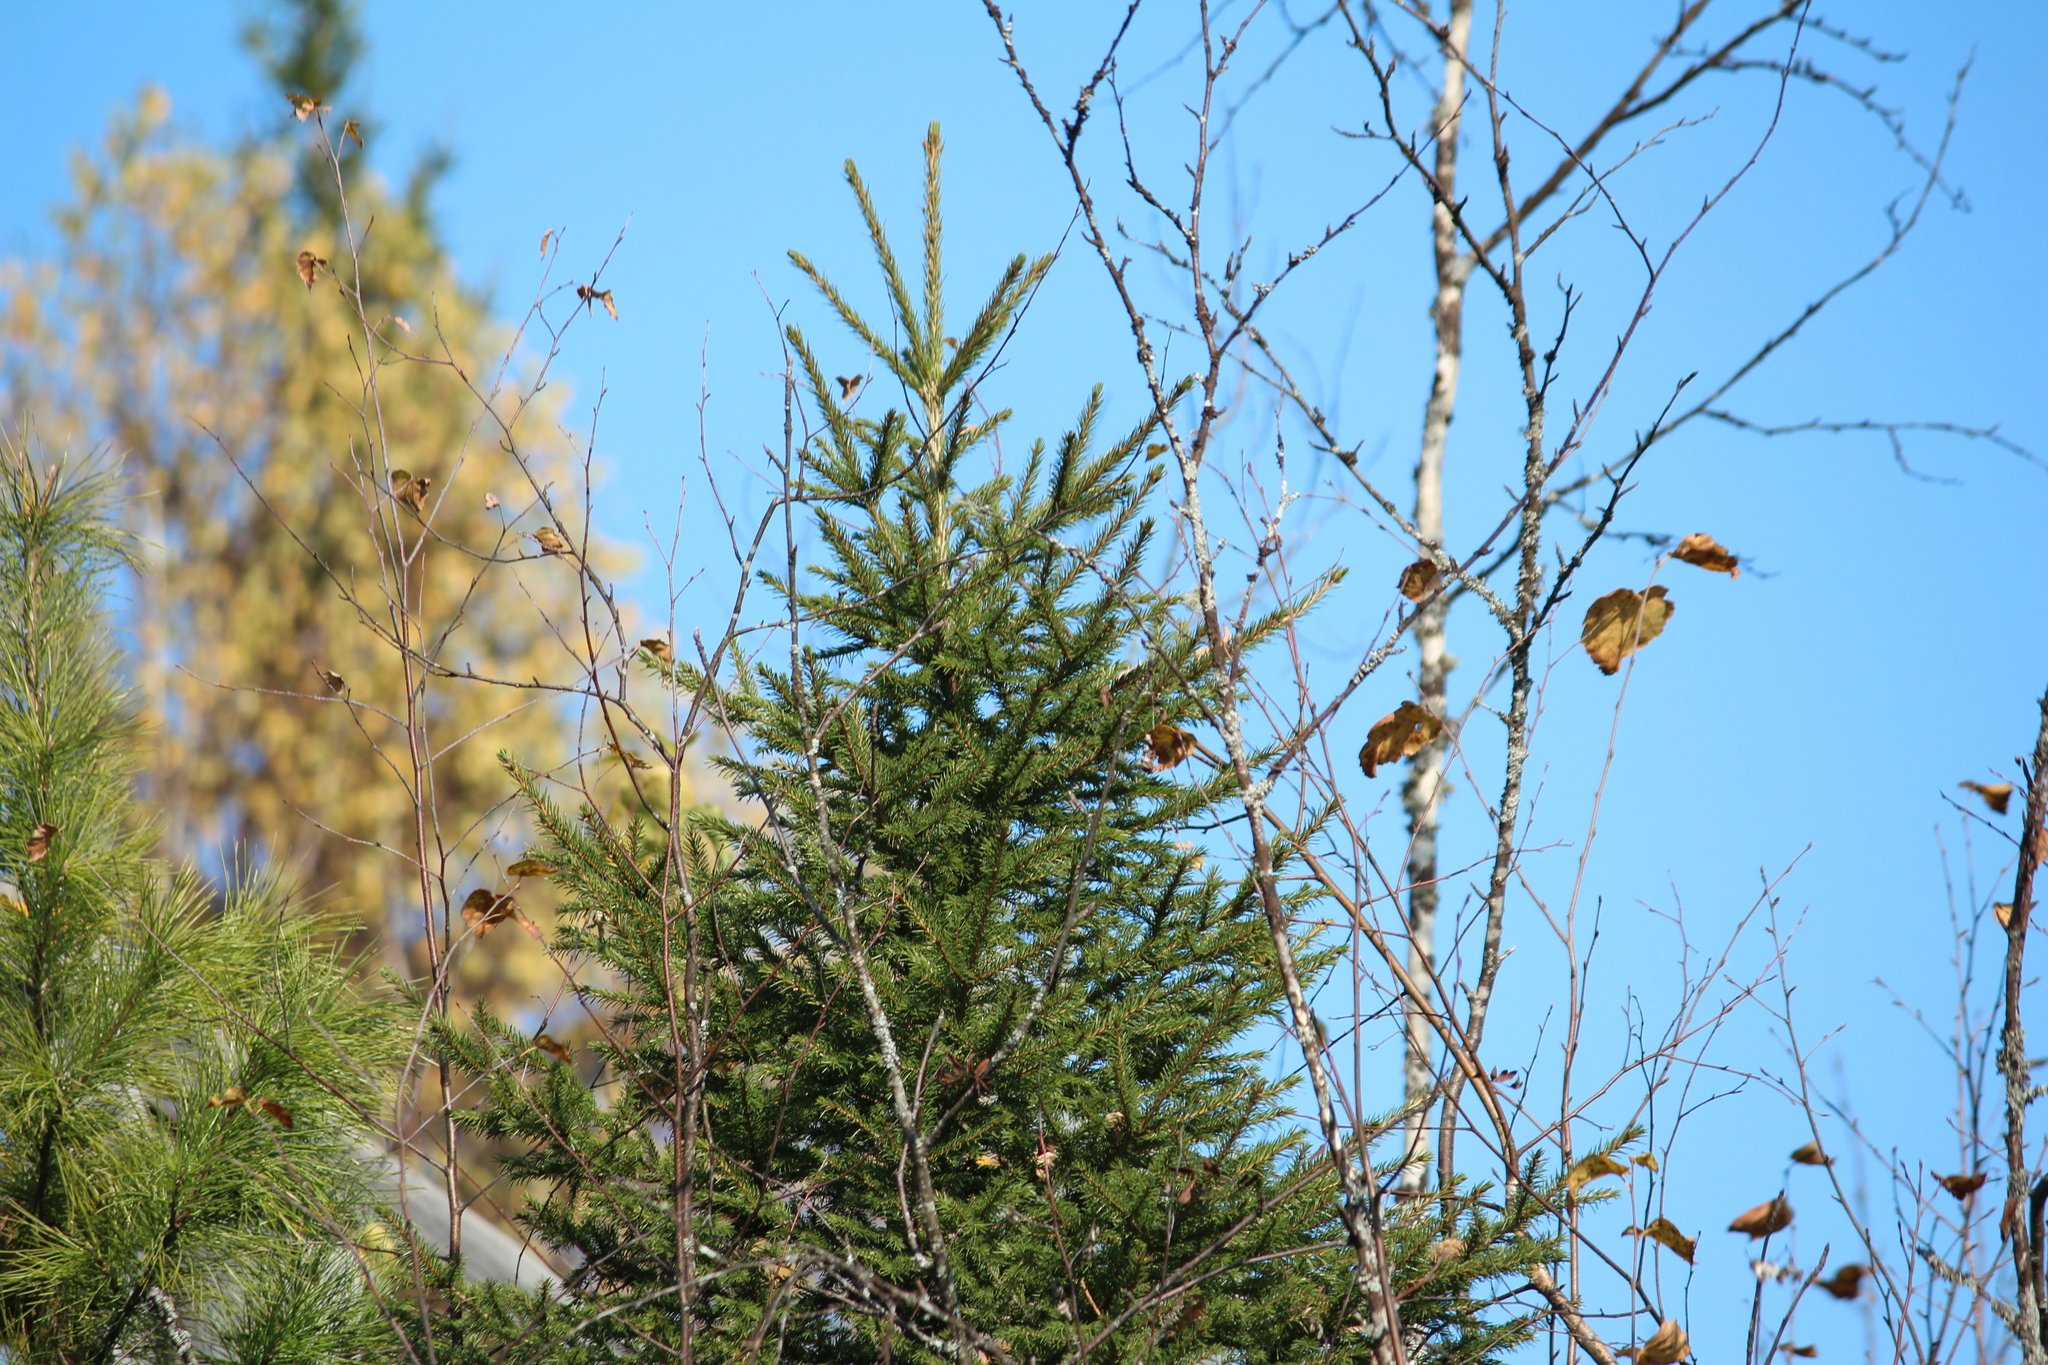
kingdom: Plantae
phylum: Tracheophyta
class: Pinopsida
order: Pinales
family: Pinaceae
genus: Picea
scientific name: Picea obovata
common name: Siberian spruce
